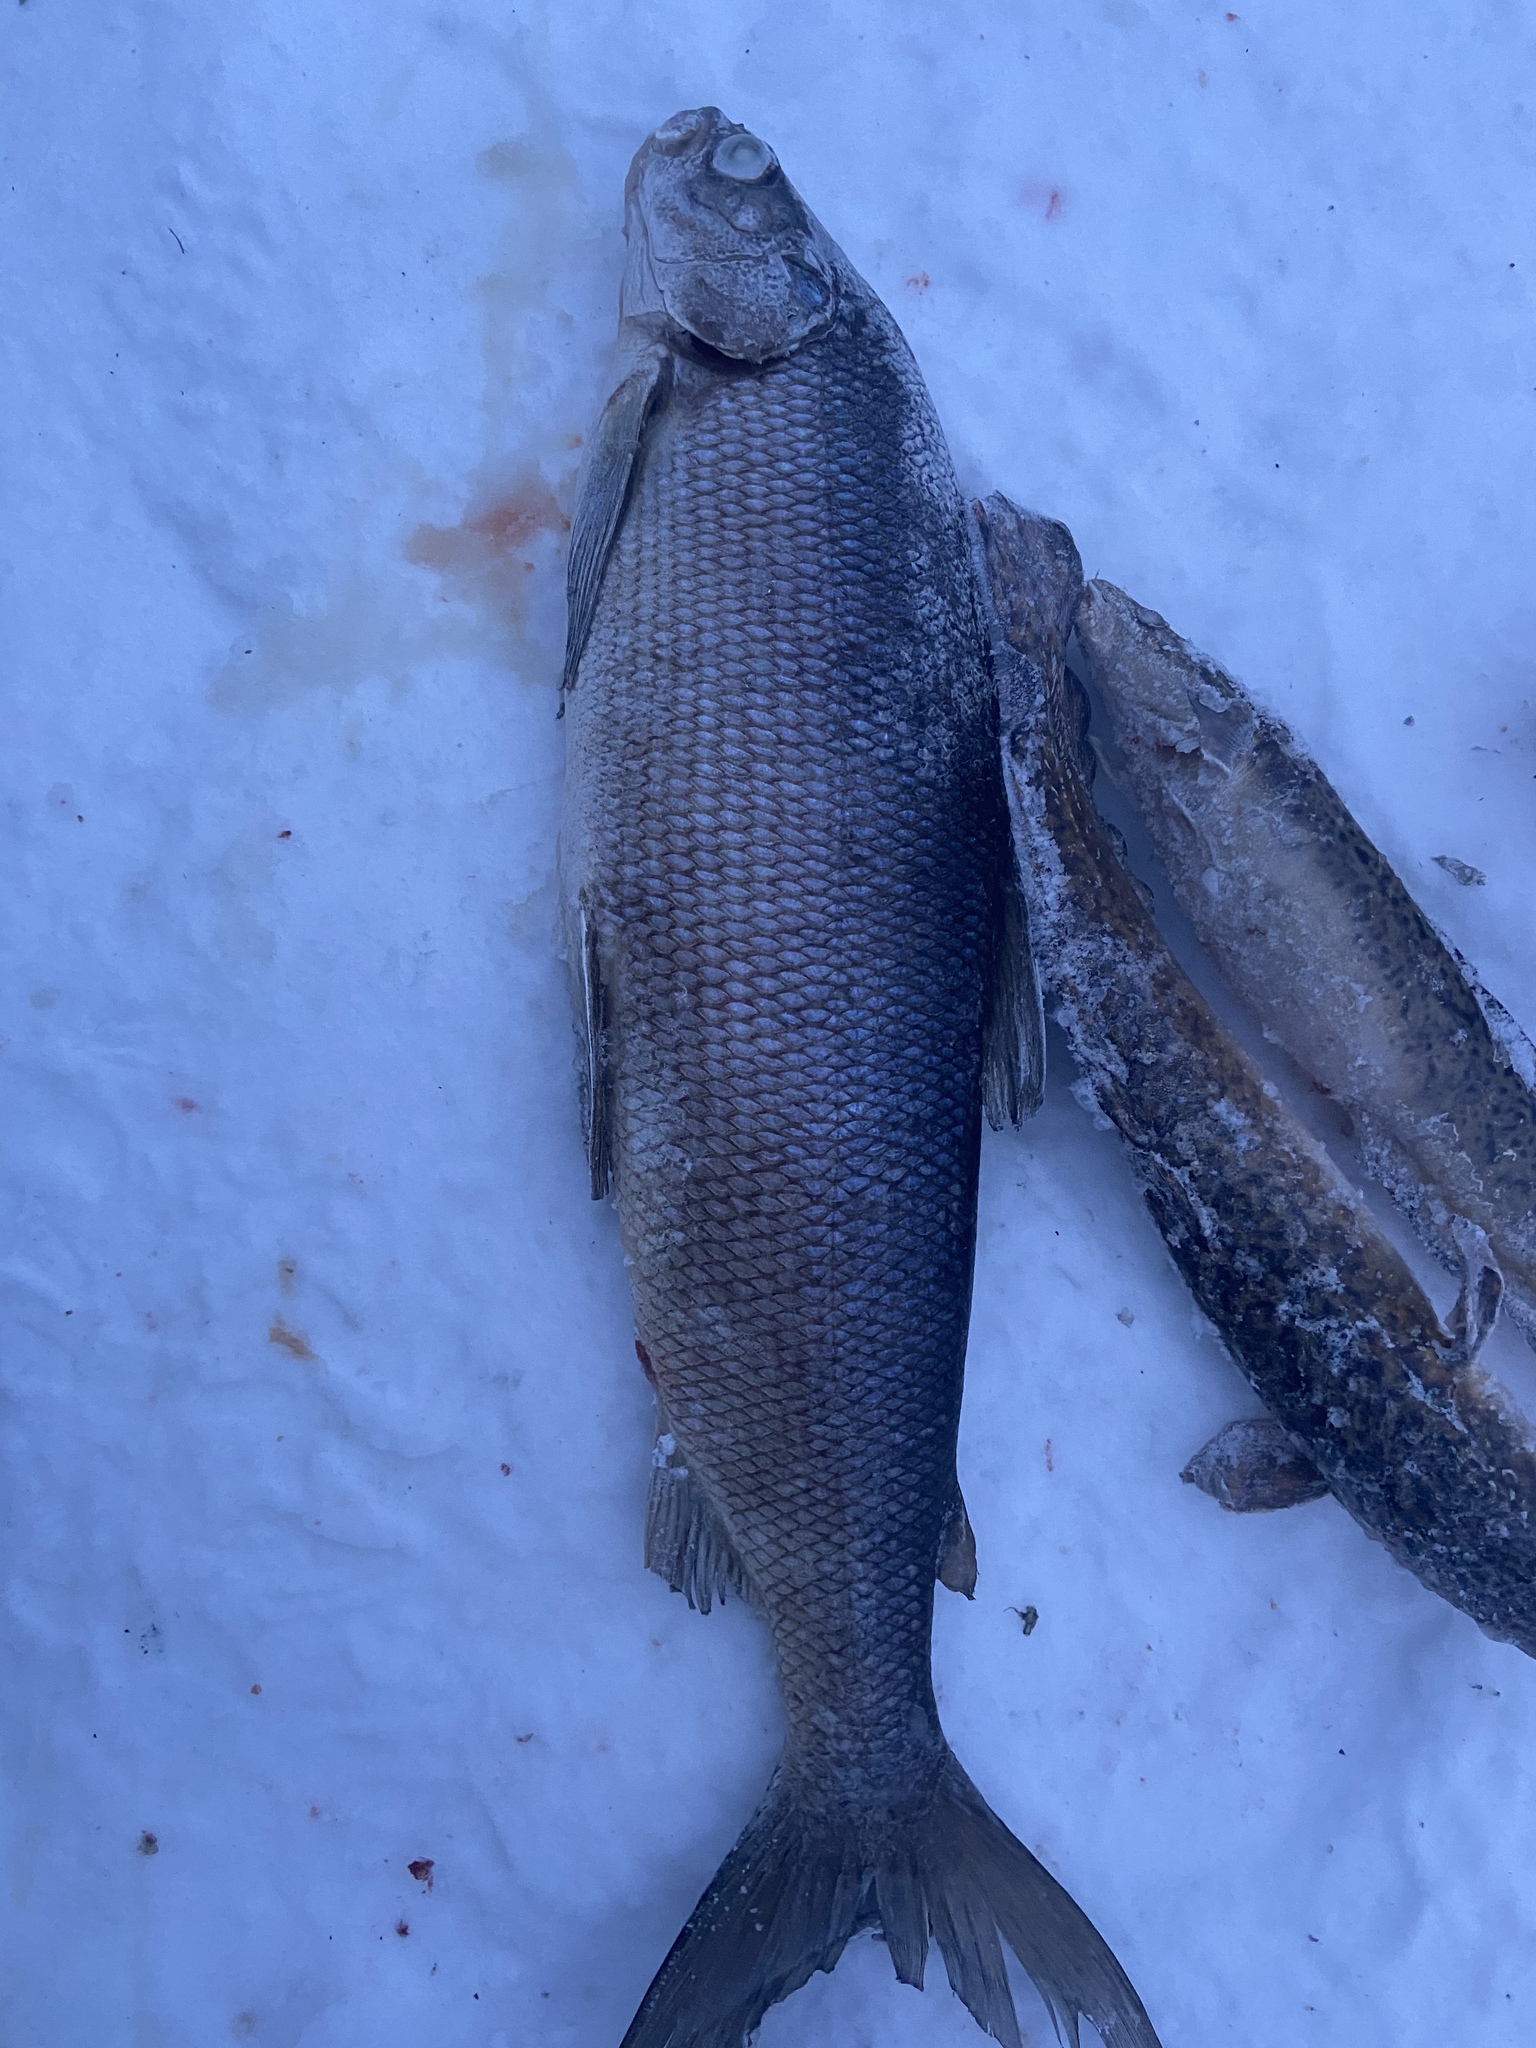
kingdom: Animalia
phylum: Chordata
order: Salmoniformes
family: Salmonidae
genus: Coregonus
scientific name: Coregonus clupeaformis
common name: Lake whitefish
